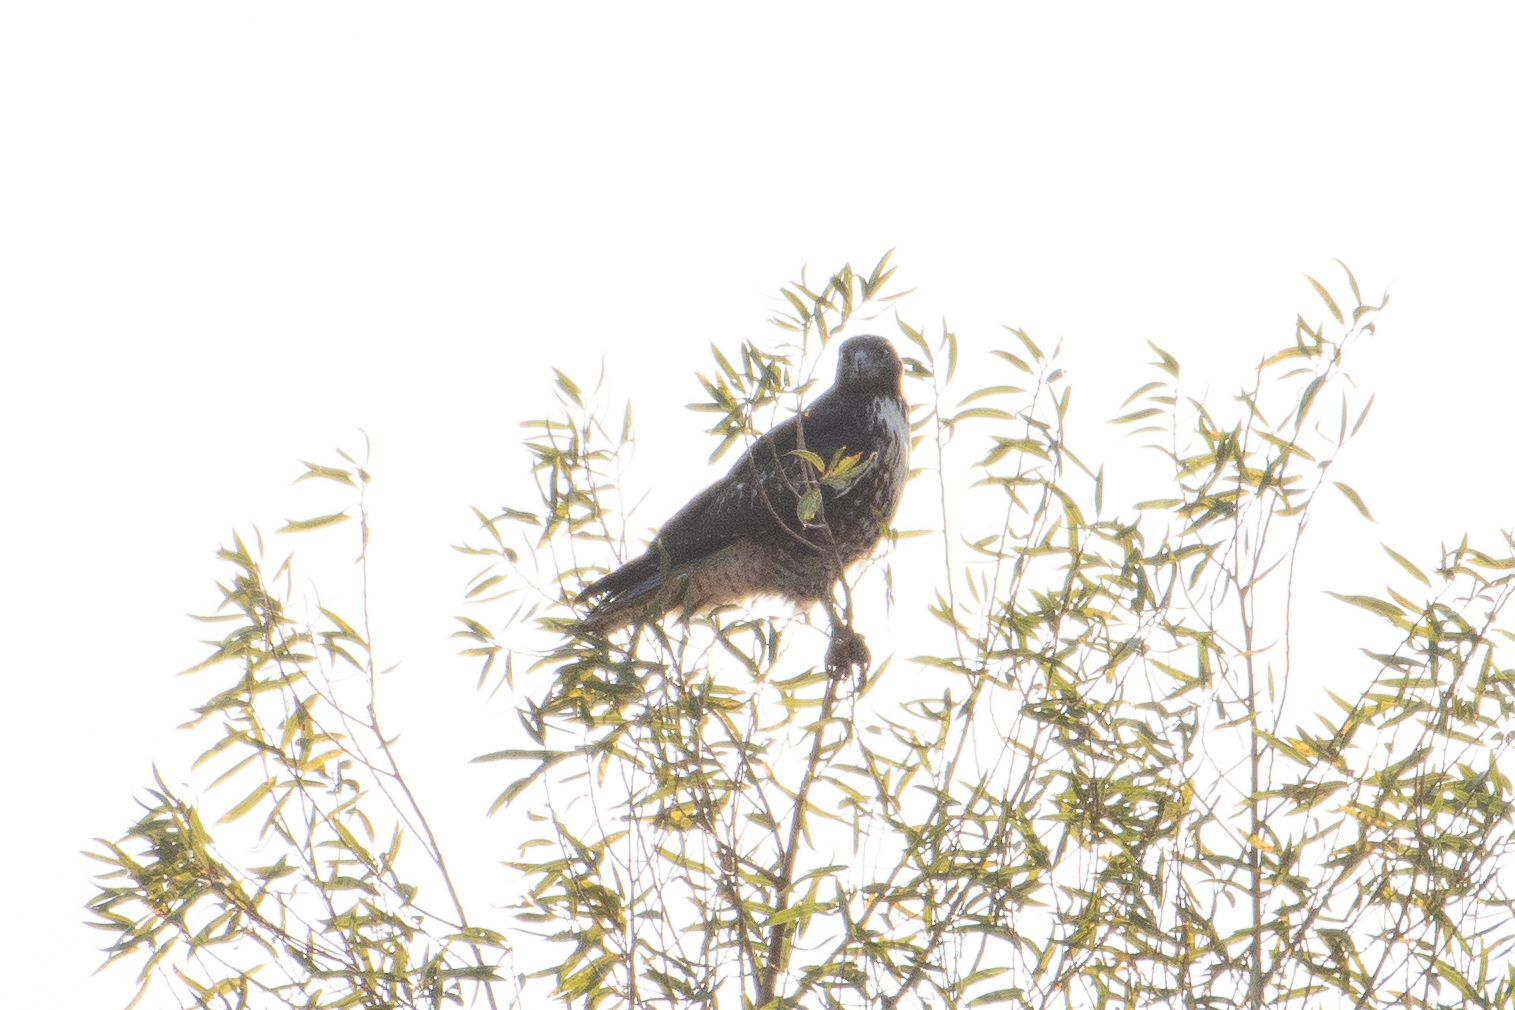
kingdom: Animalia
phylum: Chordata
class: Aves
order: Accipitriformes
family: Accipitridae
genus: Buteo
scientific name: Buteo jamaicensis
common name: Red-tailed hawk
